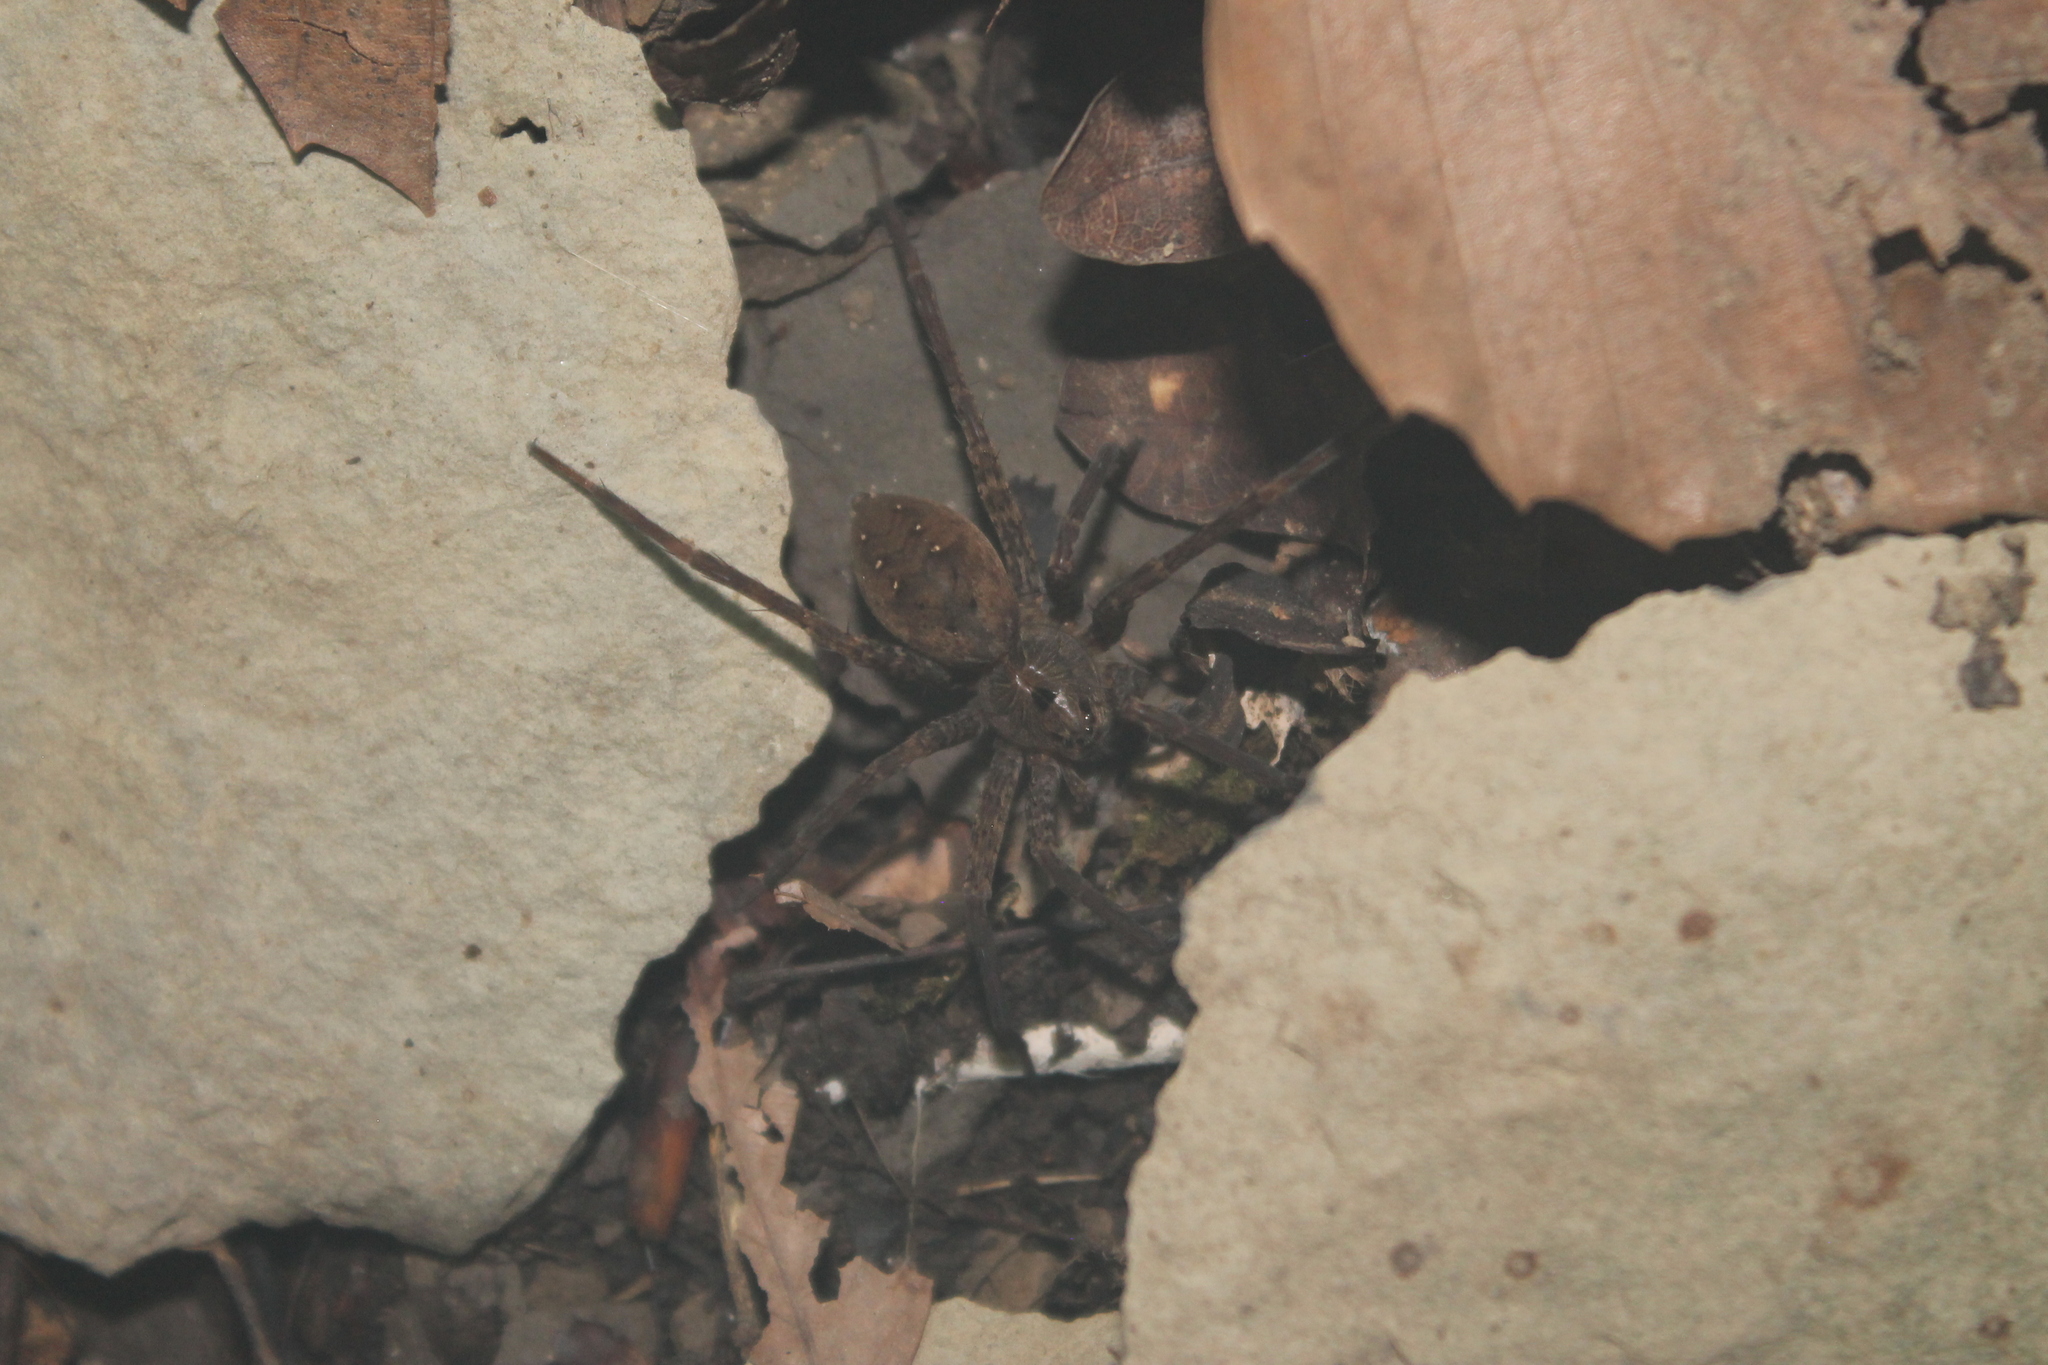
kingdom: Animalia
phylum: Arthropoda
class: Arachnida
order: Araneae
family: Pisauridae
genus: Dolomedes
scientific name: Dolomedes vittatus
